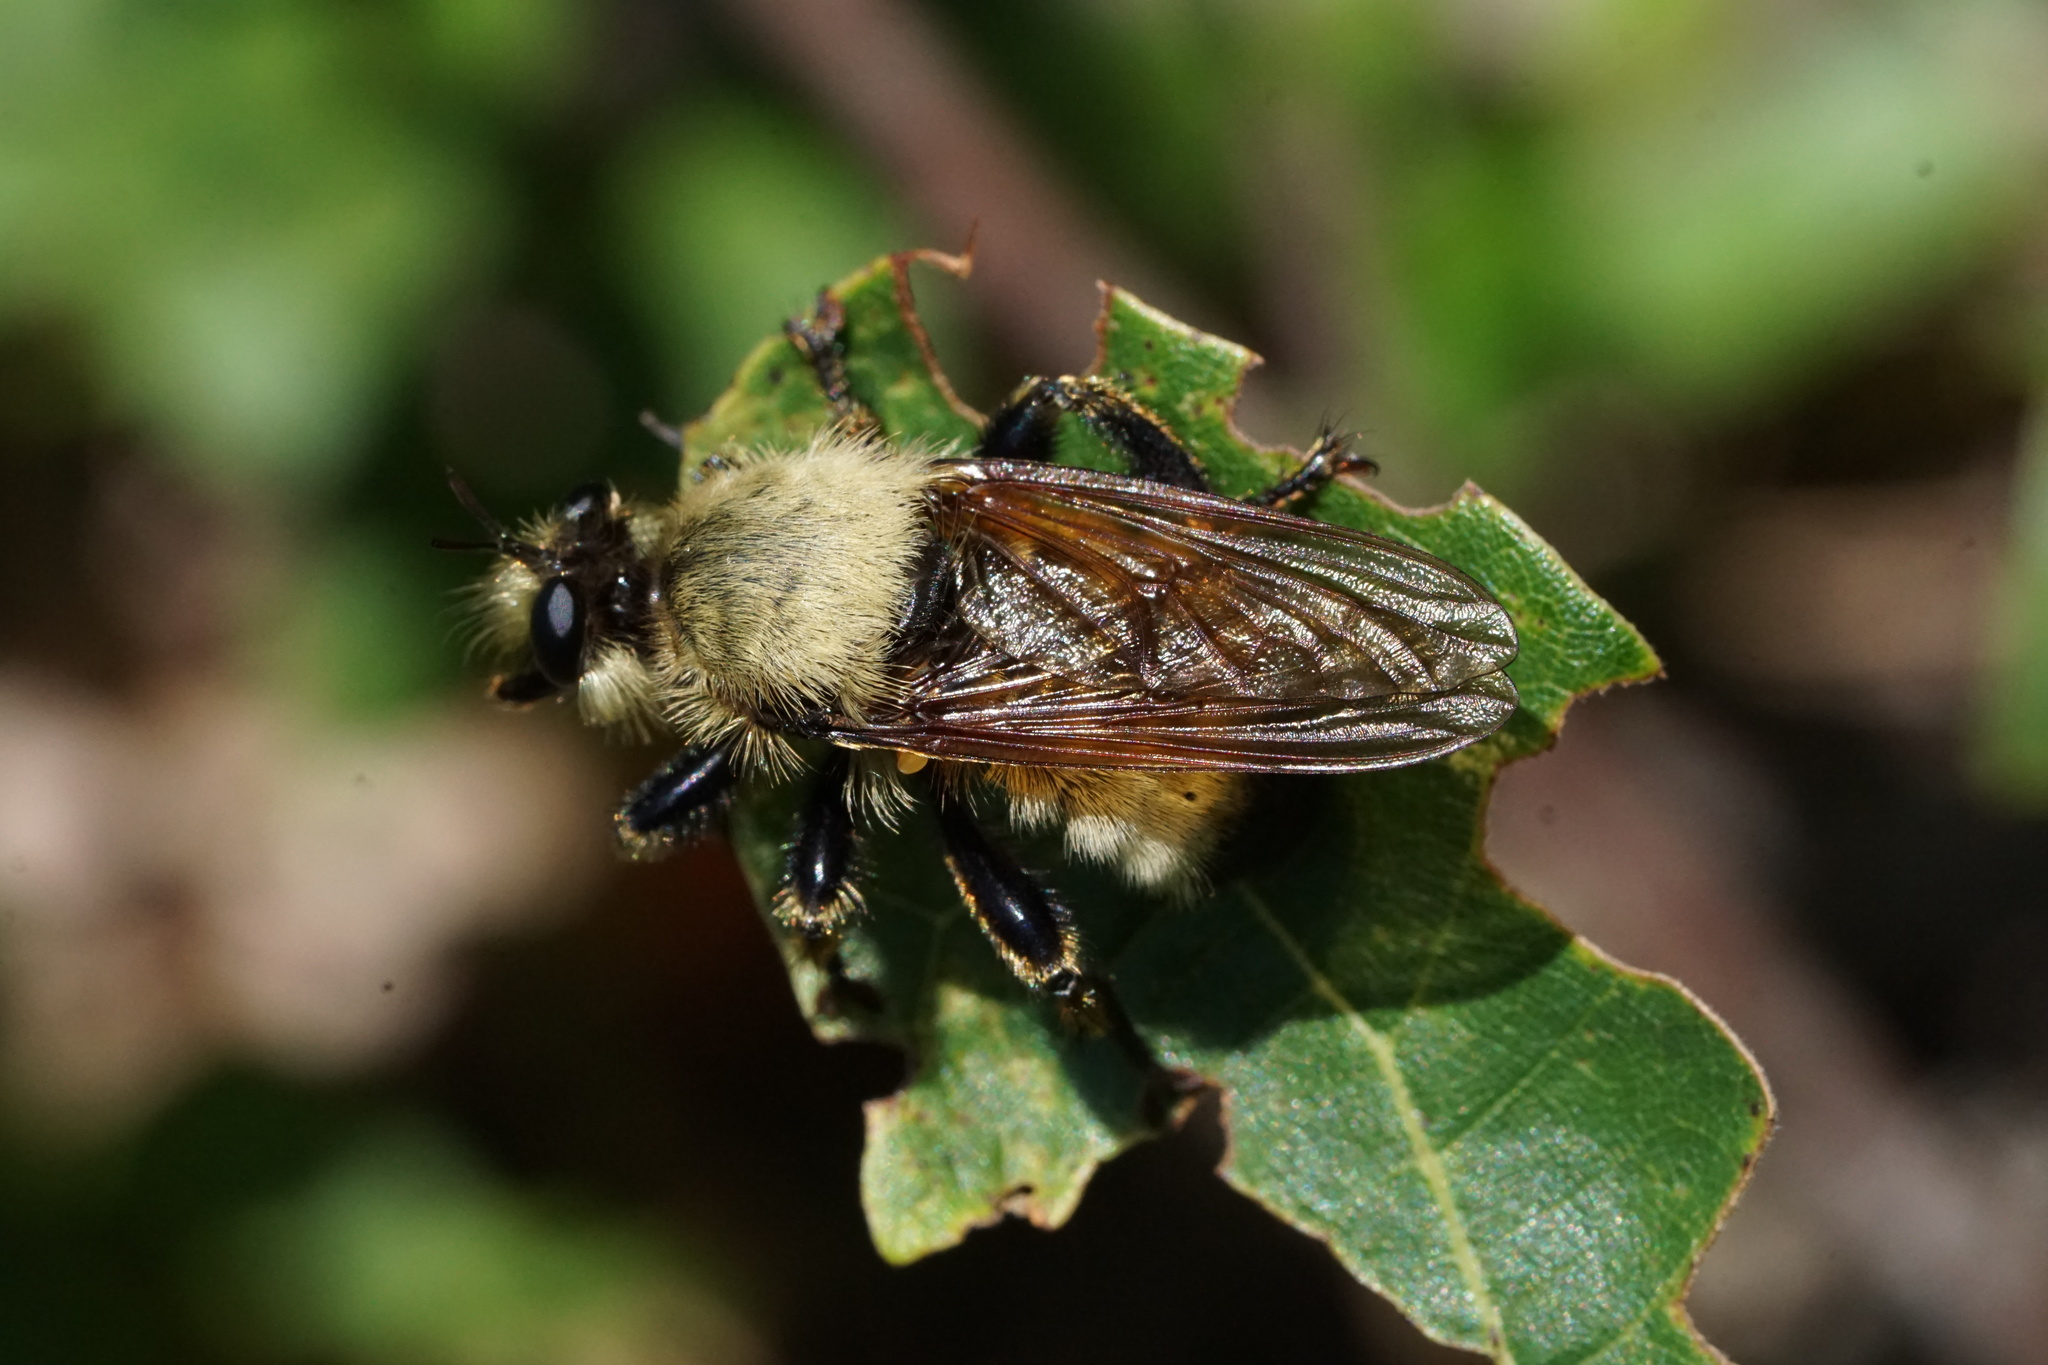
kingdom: Animalia
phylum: Arthropoda
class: Insecta
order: Diptera
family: Asilidae
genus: Laphria
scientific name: Laphria champlainii
